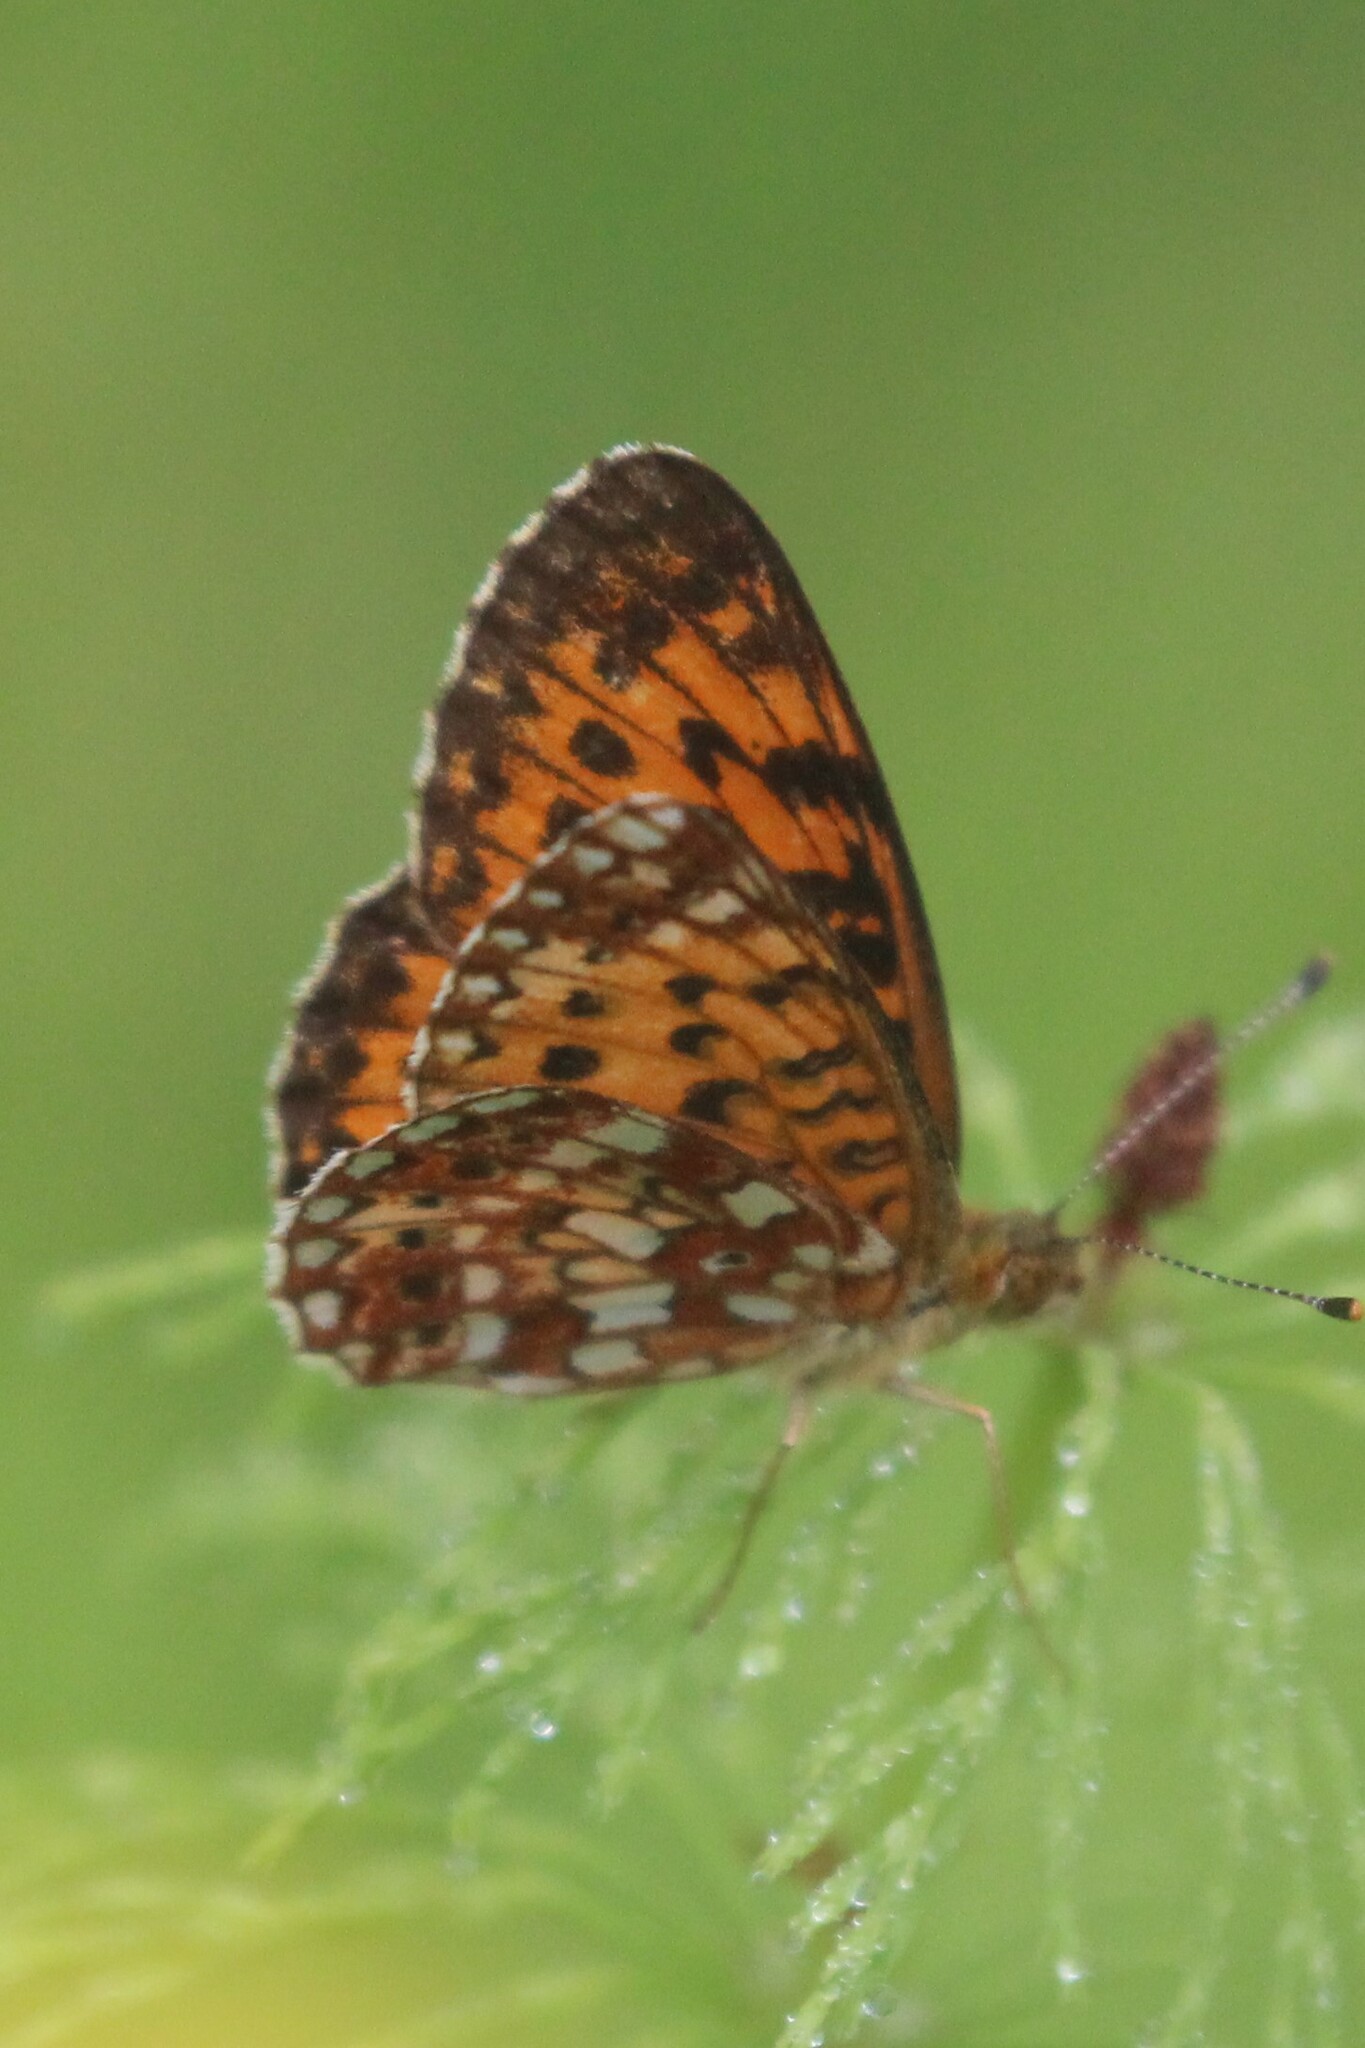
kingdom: Animalia
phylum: Arthropoda
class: Insecta
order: Lepidoptera
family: Nymphalidae
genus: Boloria
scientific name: Boloria
